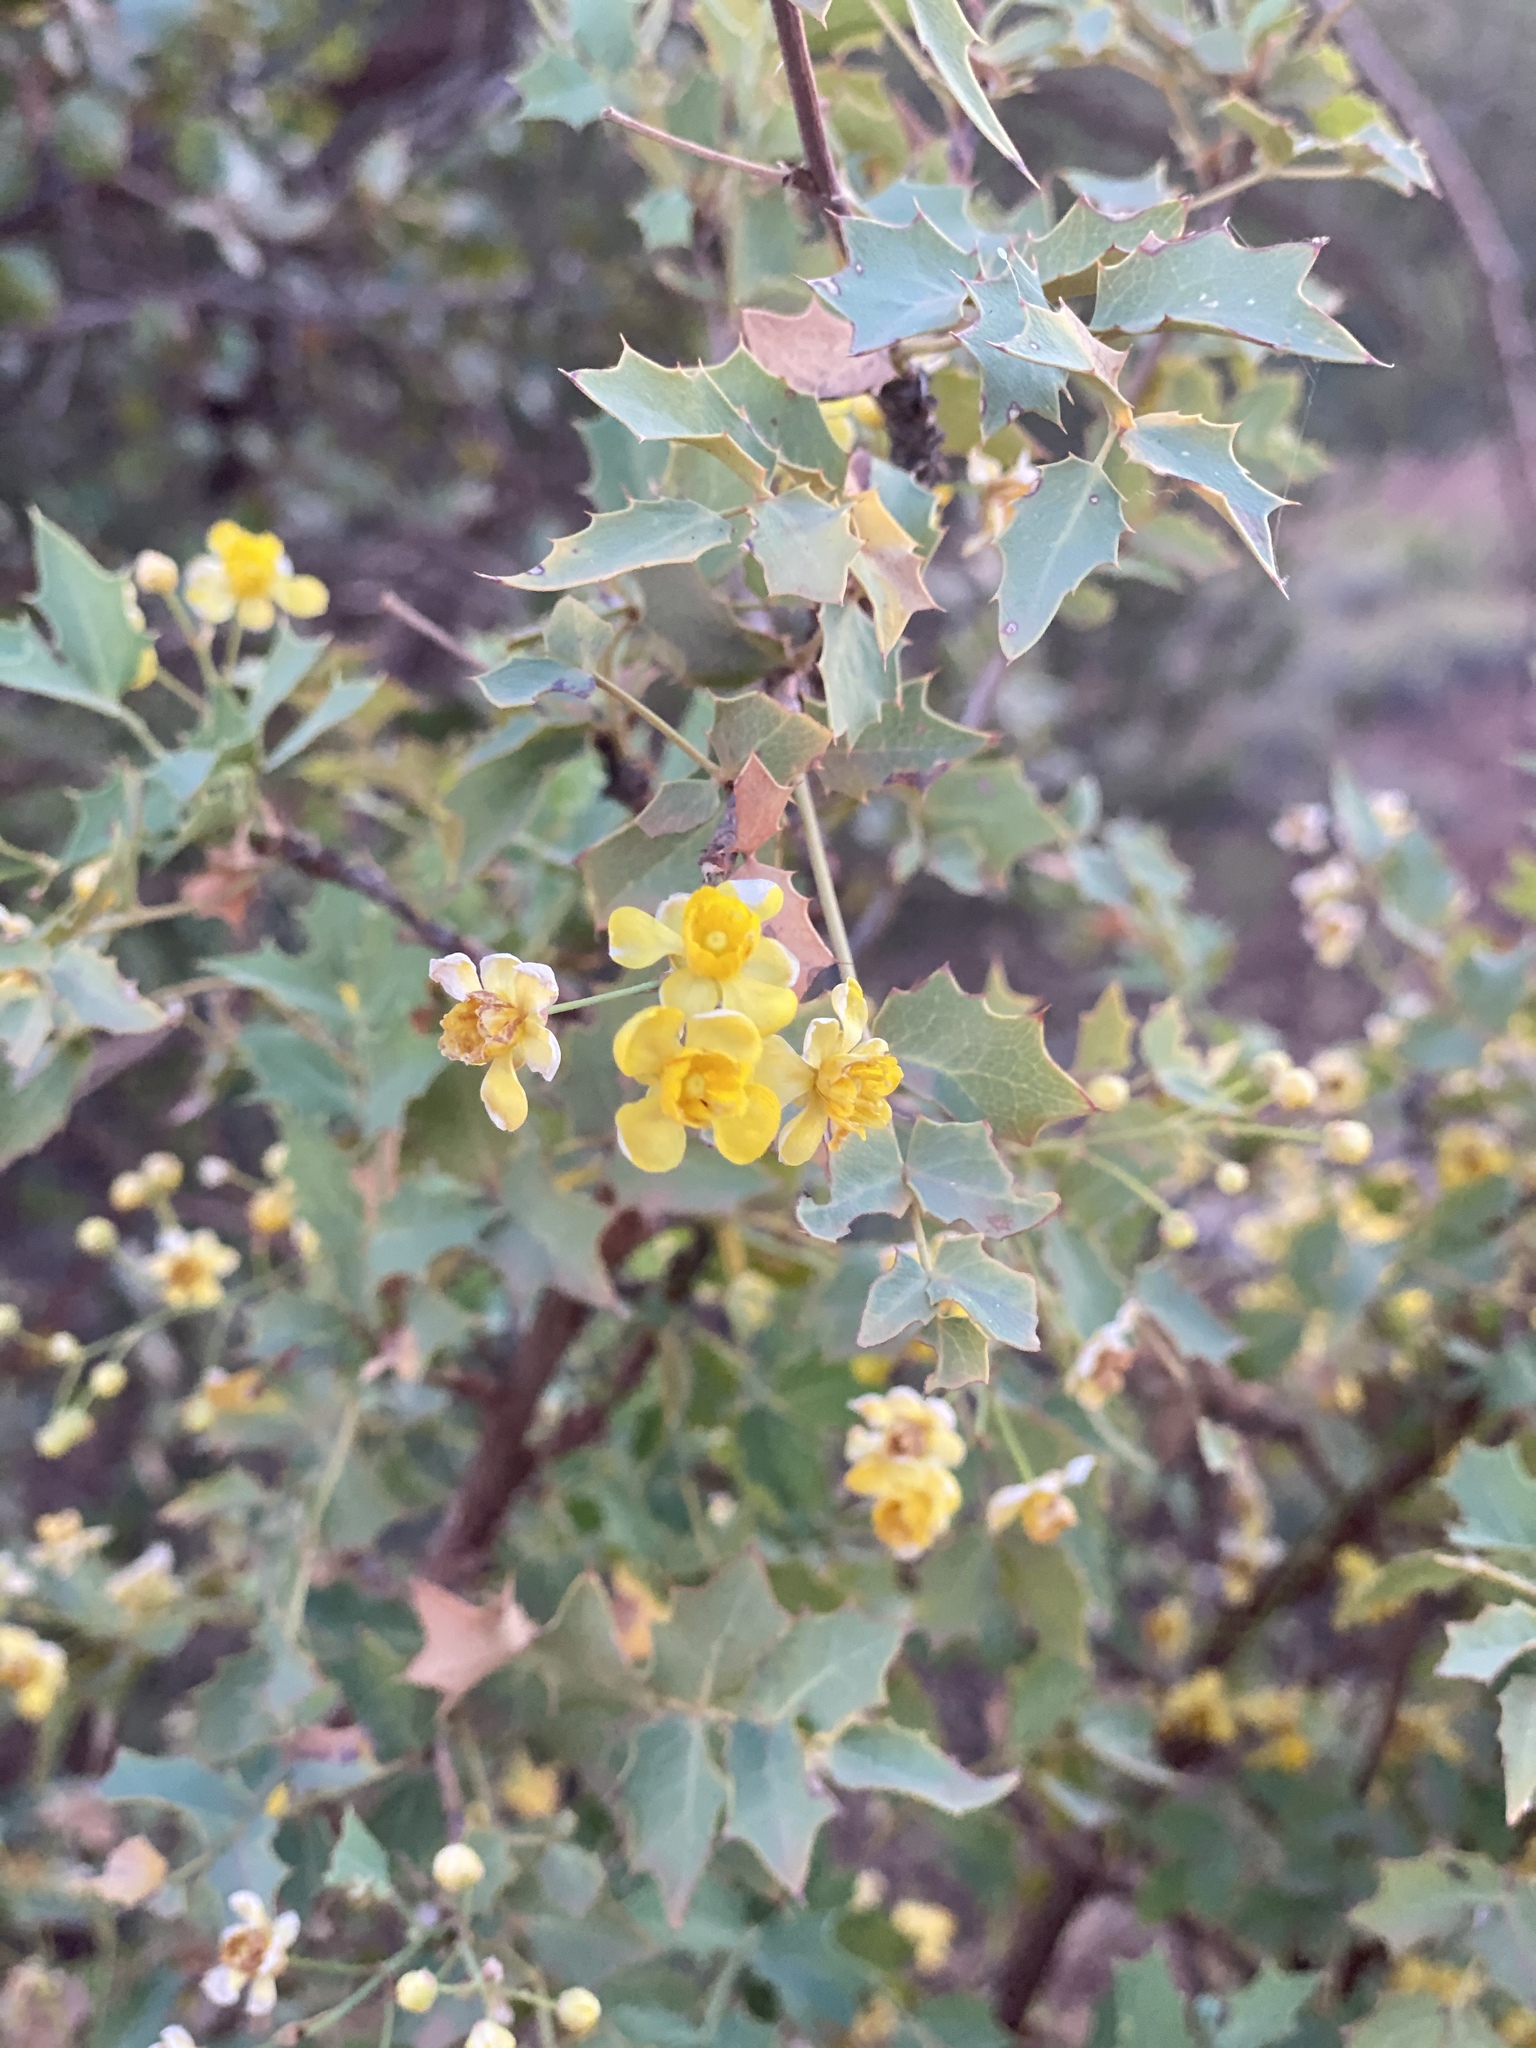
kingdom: Plantae
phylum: Tracheophyta
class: Magnoliopsida
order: Ranunculales
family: Berberidaceae
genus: Alloberberis
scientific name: Alloberberis fremontii
